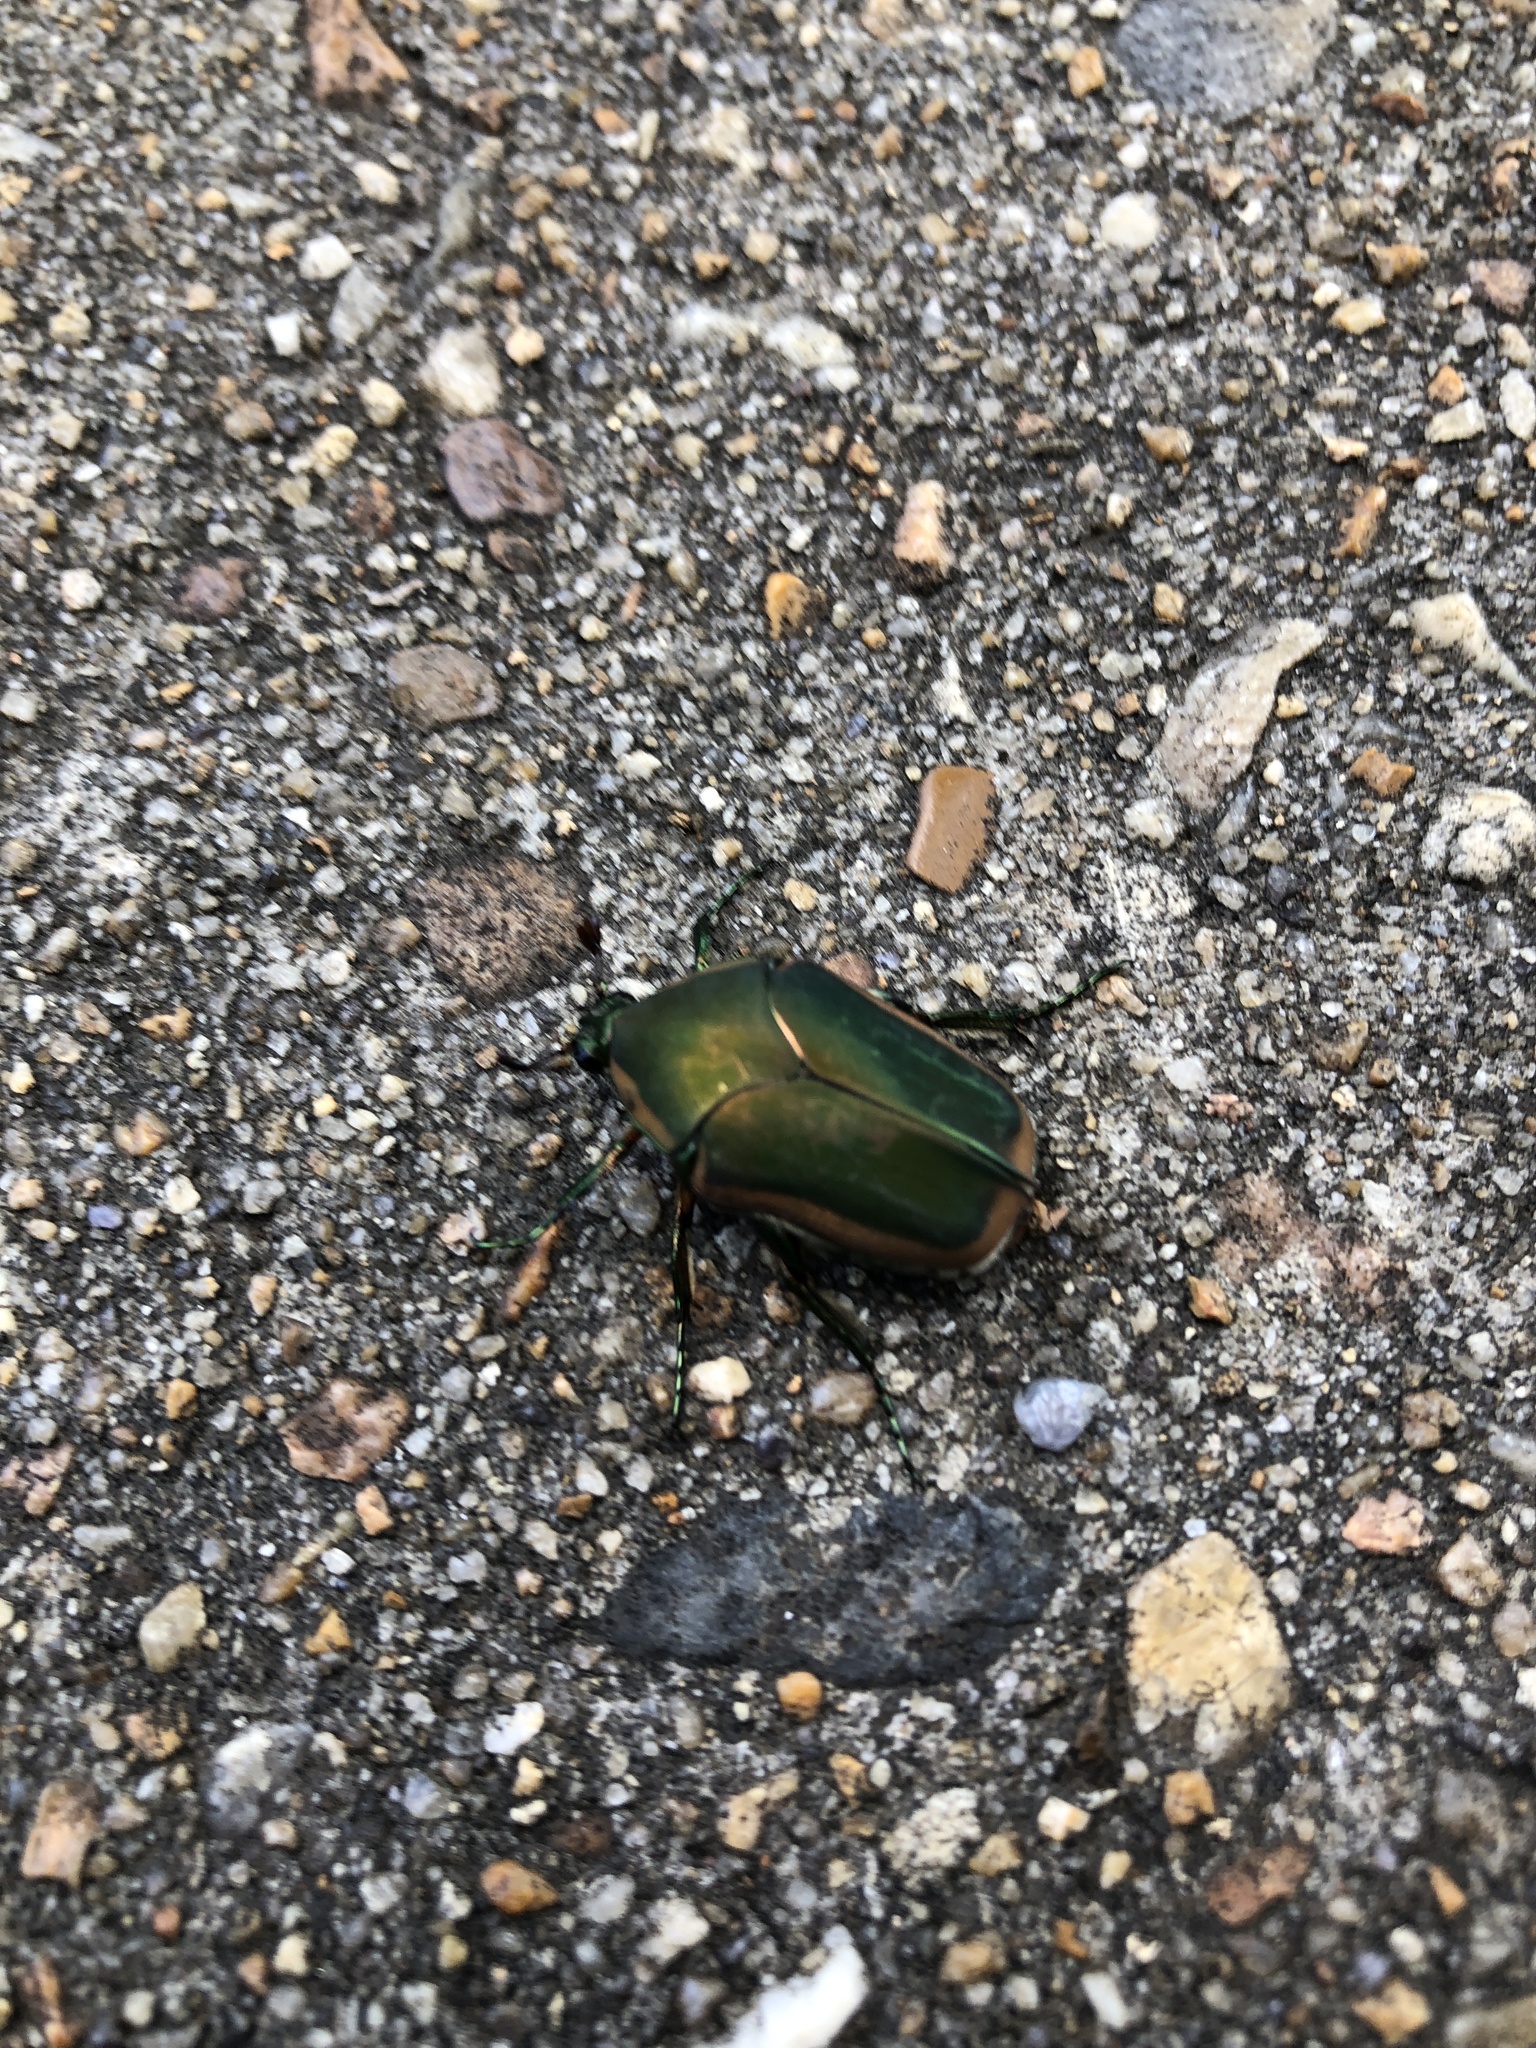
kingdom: Animalia
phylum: Arthropoda
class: Insecta
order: Coleoptera
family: Scarabaeidae
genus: Cotinis
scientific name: Cotinis nitida
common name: Common green june beetle
